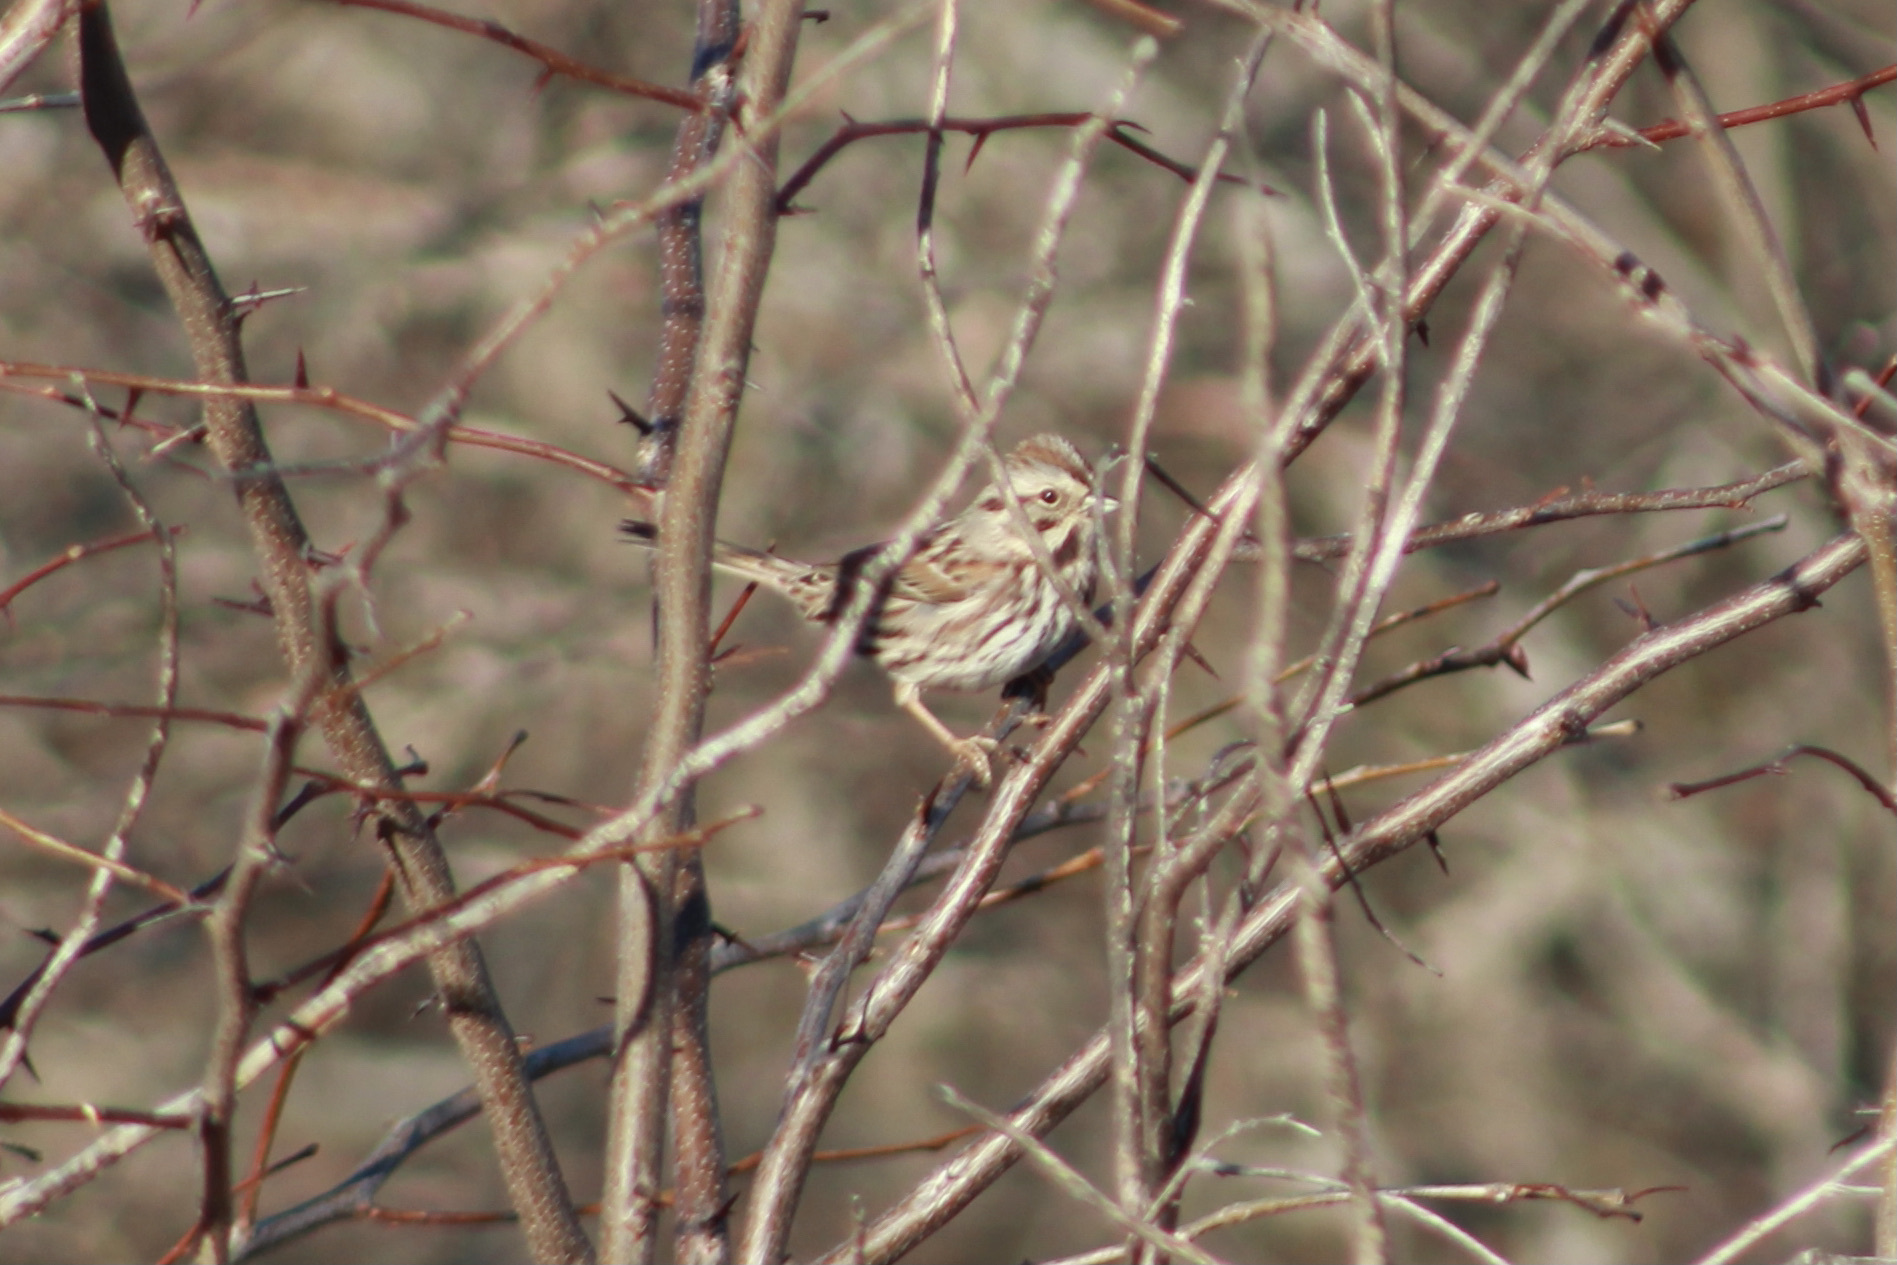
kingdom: Animalia
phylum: Chordata
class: Aves
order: Passeriformes
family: Passerellidae
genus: Melospiza
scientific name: Melospiza melodia
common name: Song sparrow
